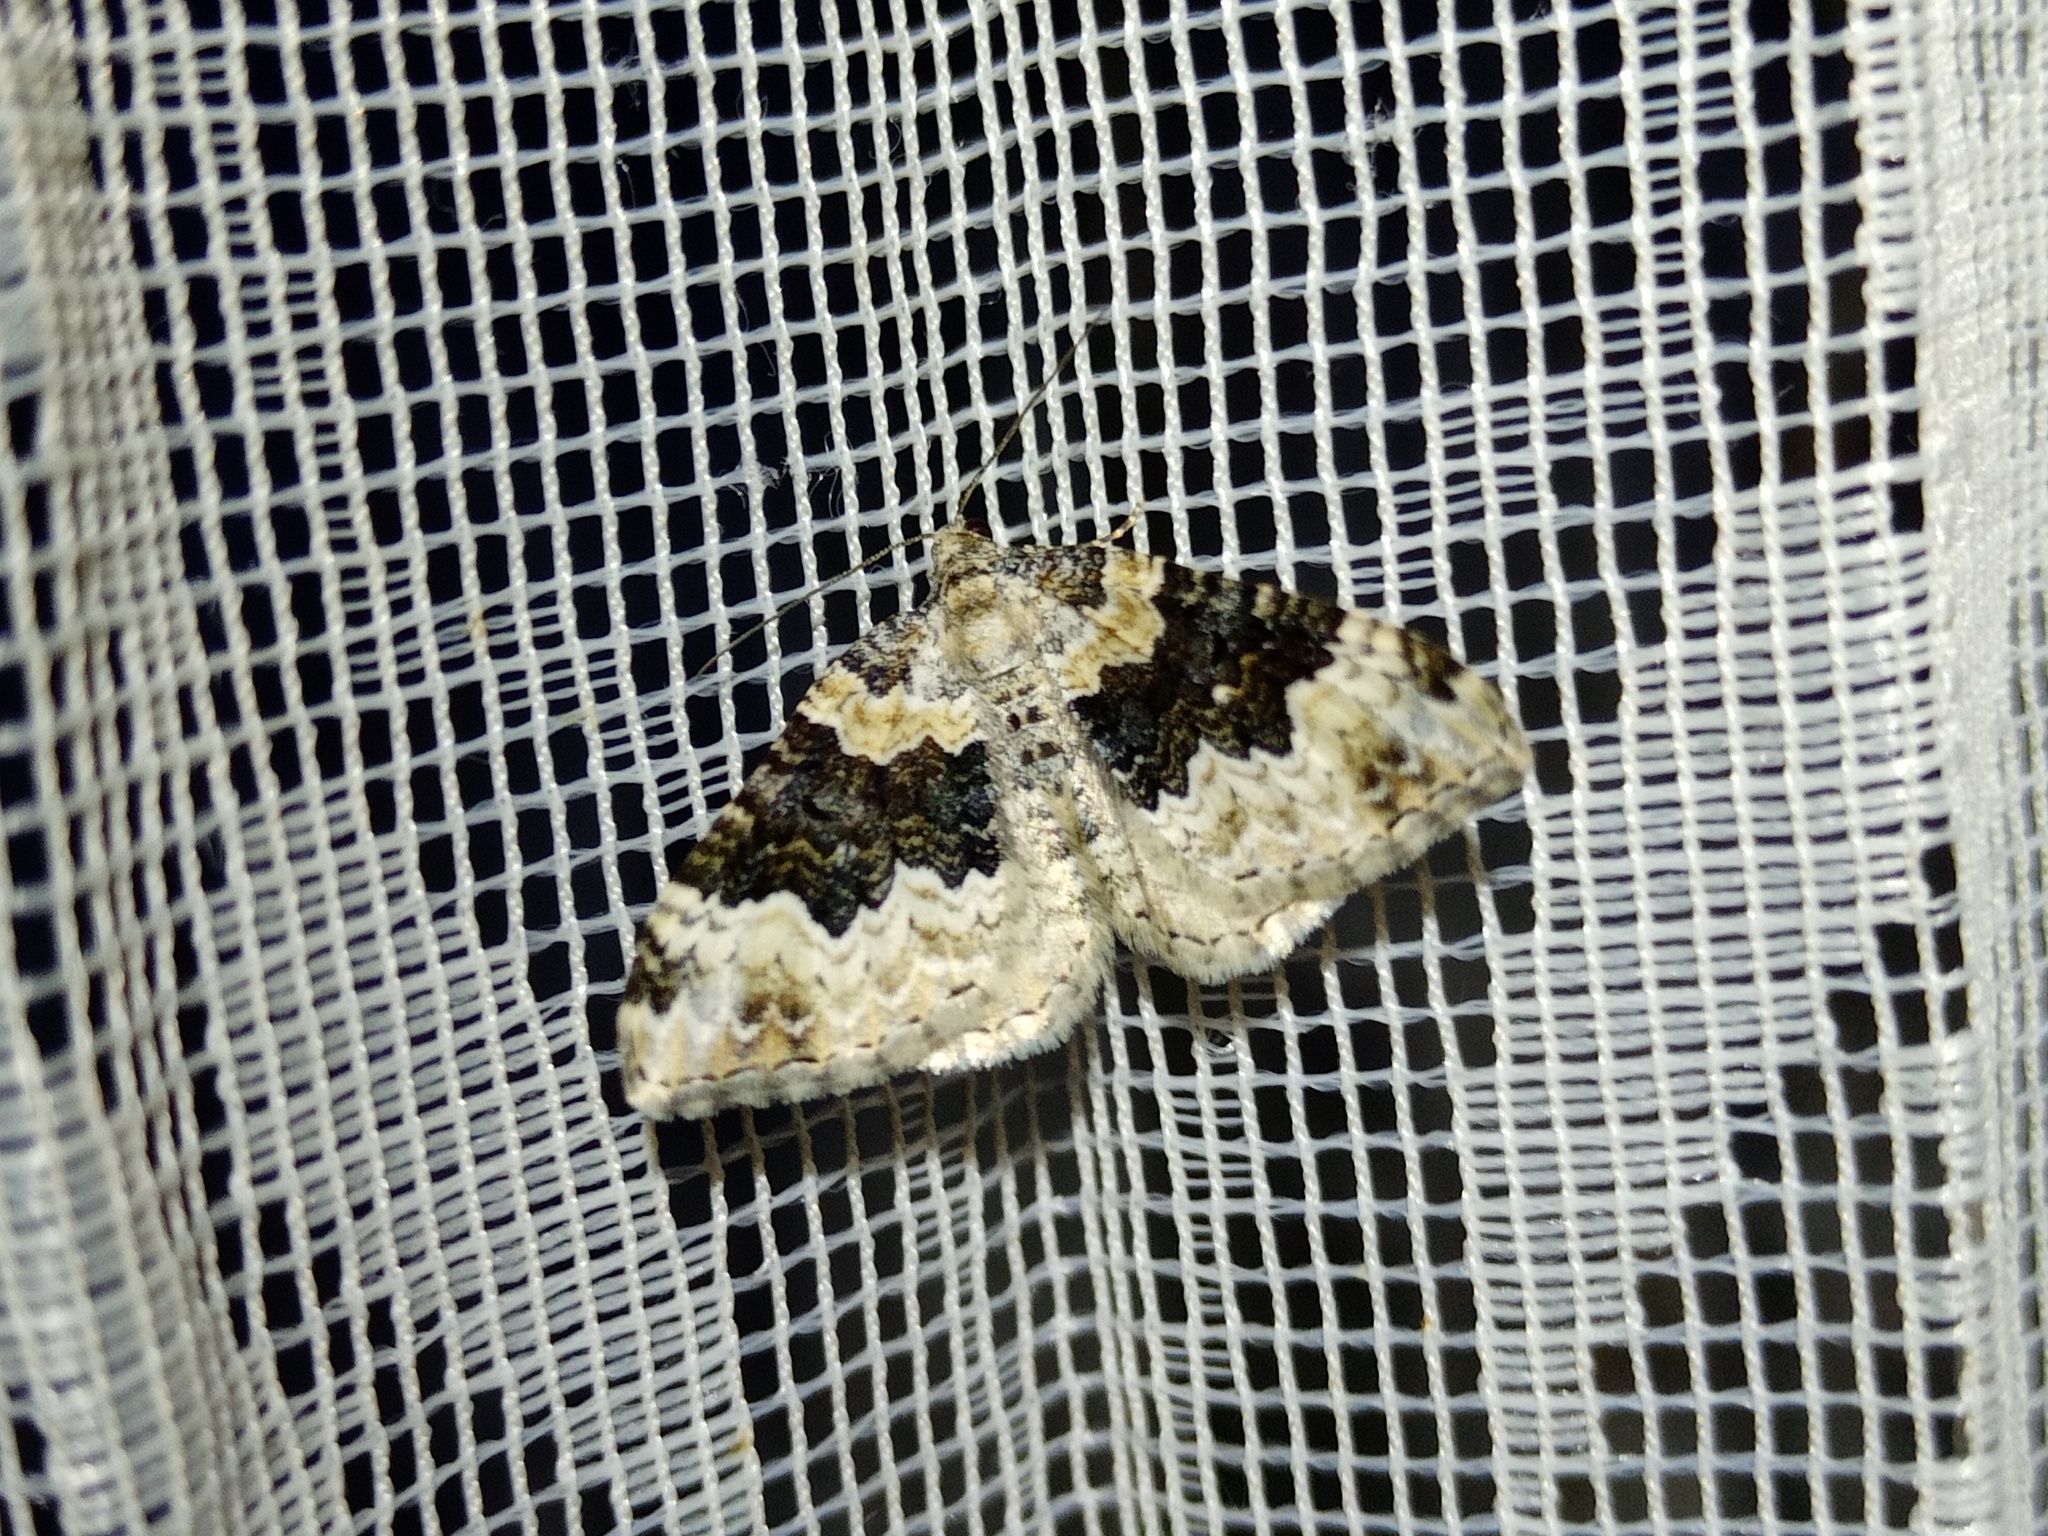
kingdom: Animalia
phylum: Arthropoda
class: Insecta
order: Lepidoptera
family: Geometridae
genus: Epirrhoe
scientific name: Epirrhoe galiata
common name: Galium carpet
